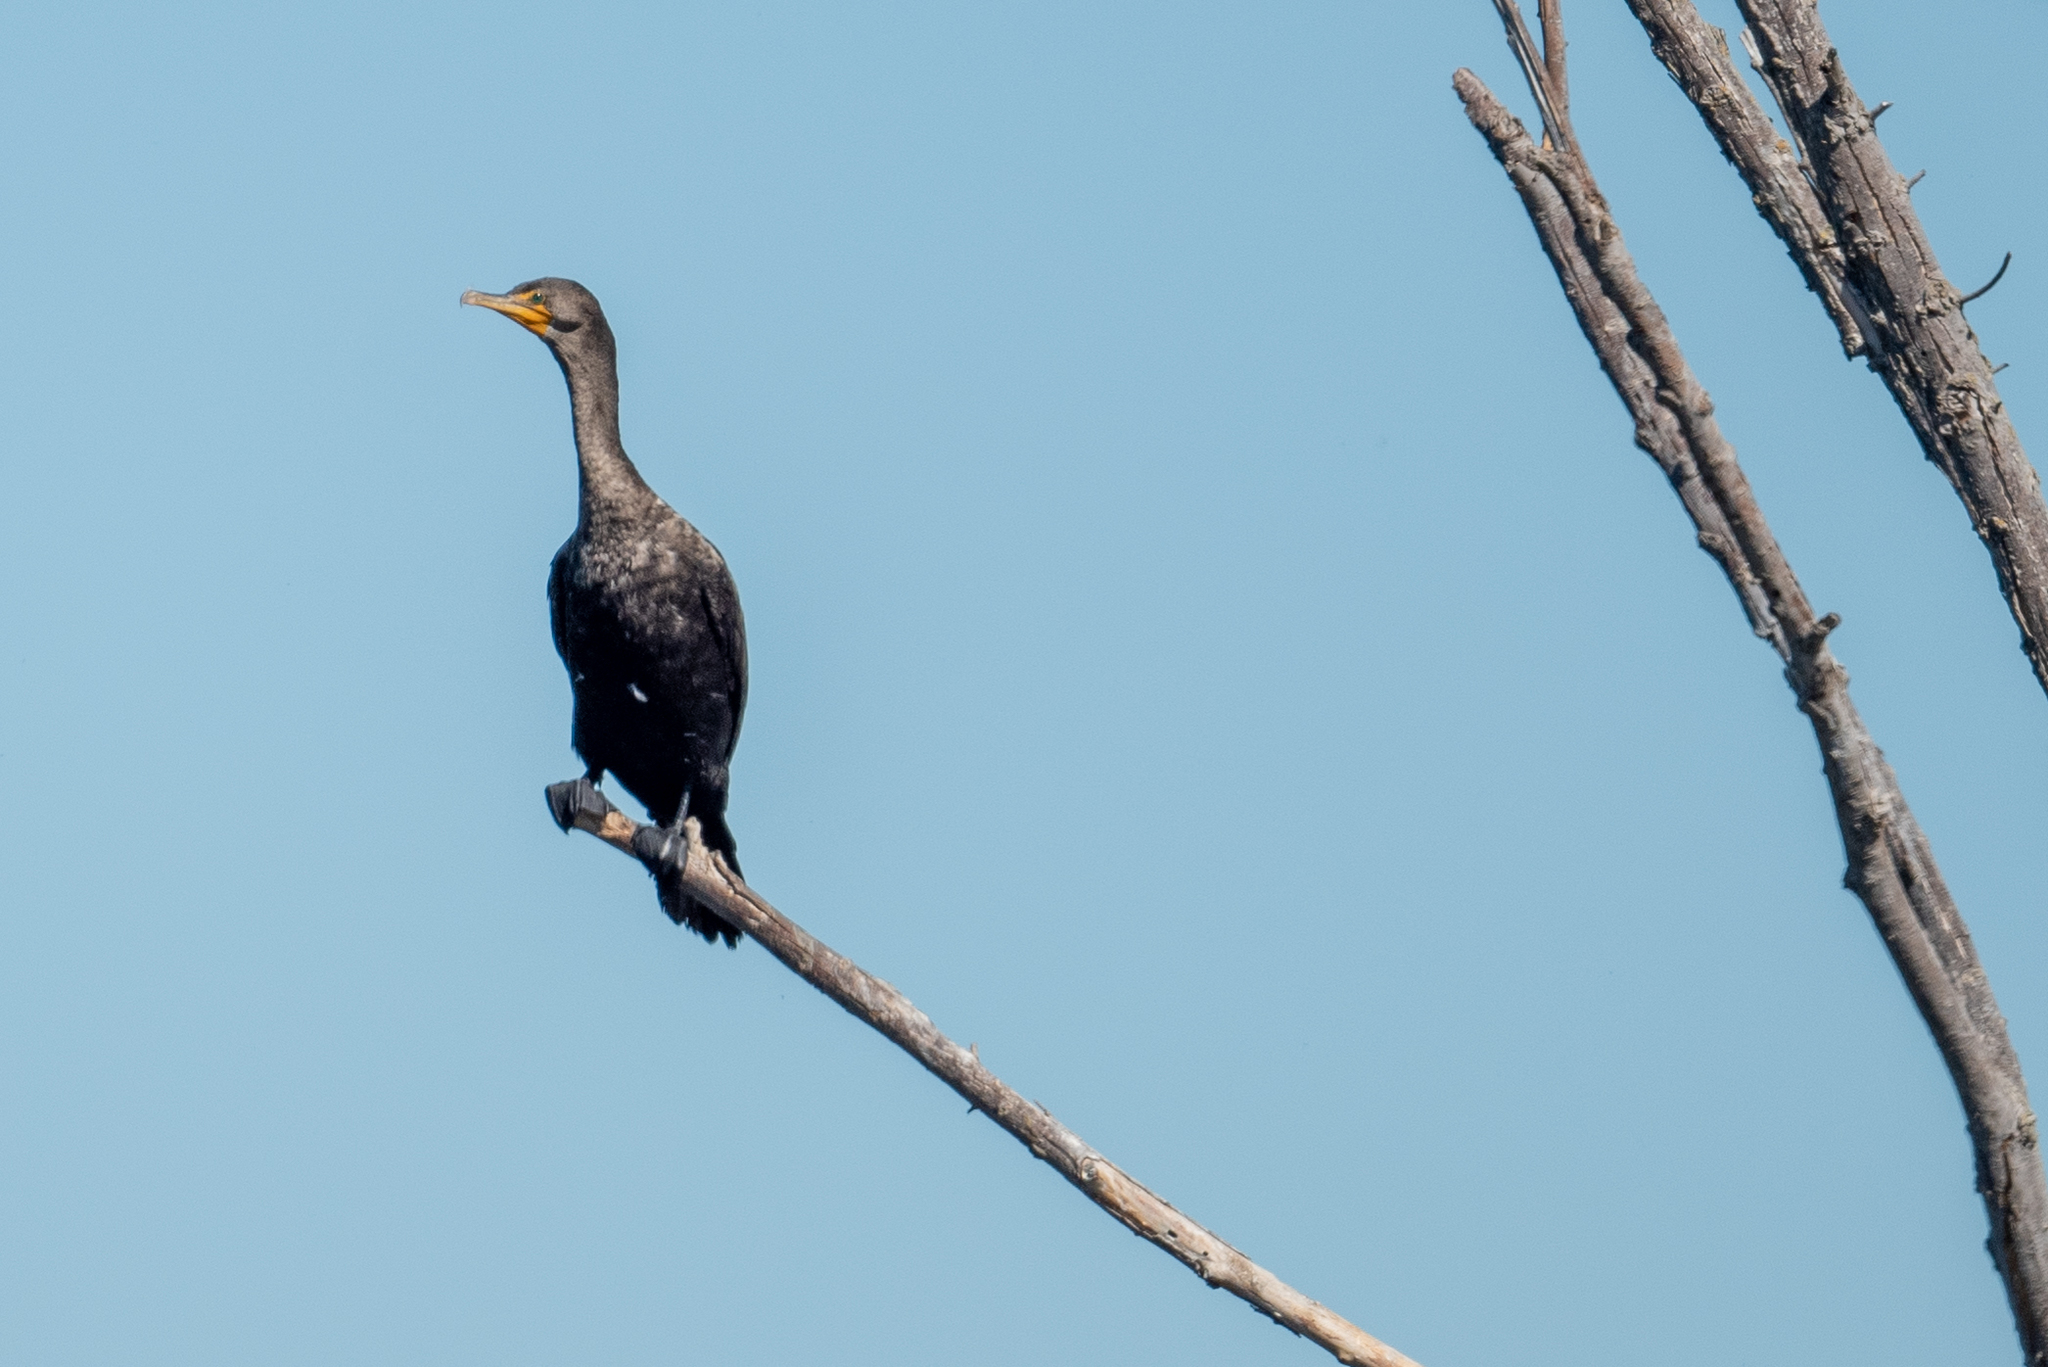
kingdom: Animalia
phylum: Chordata
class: Aves
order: Suliformes
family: Phalacrocoracidae
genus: Phalacrocorax
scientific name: Phalacrocorax auritus
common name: Double-crested cormorant
